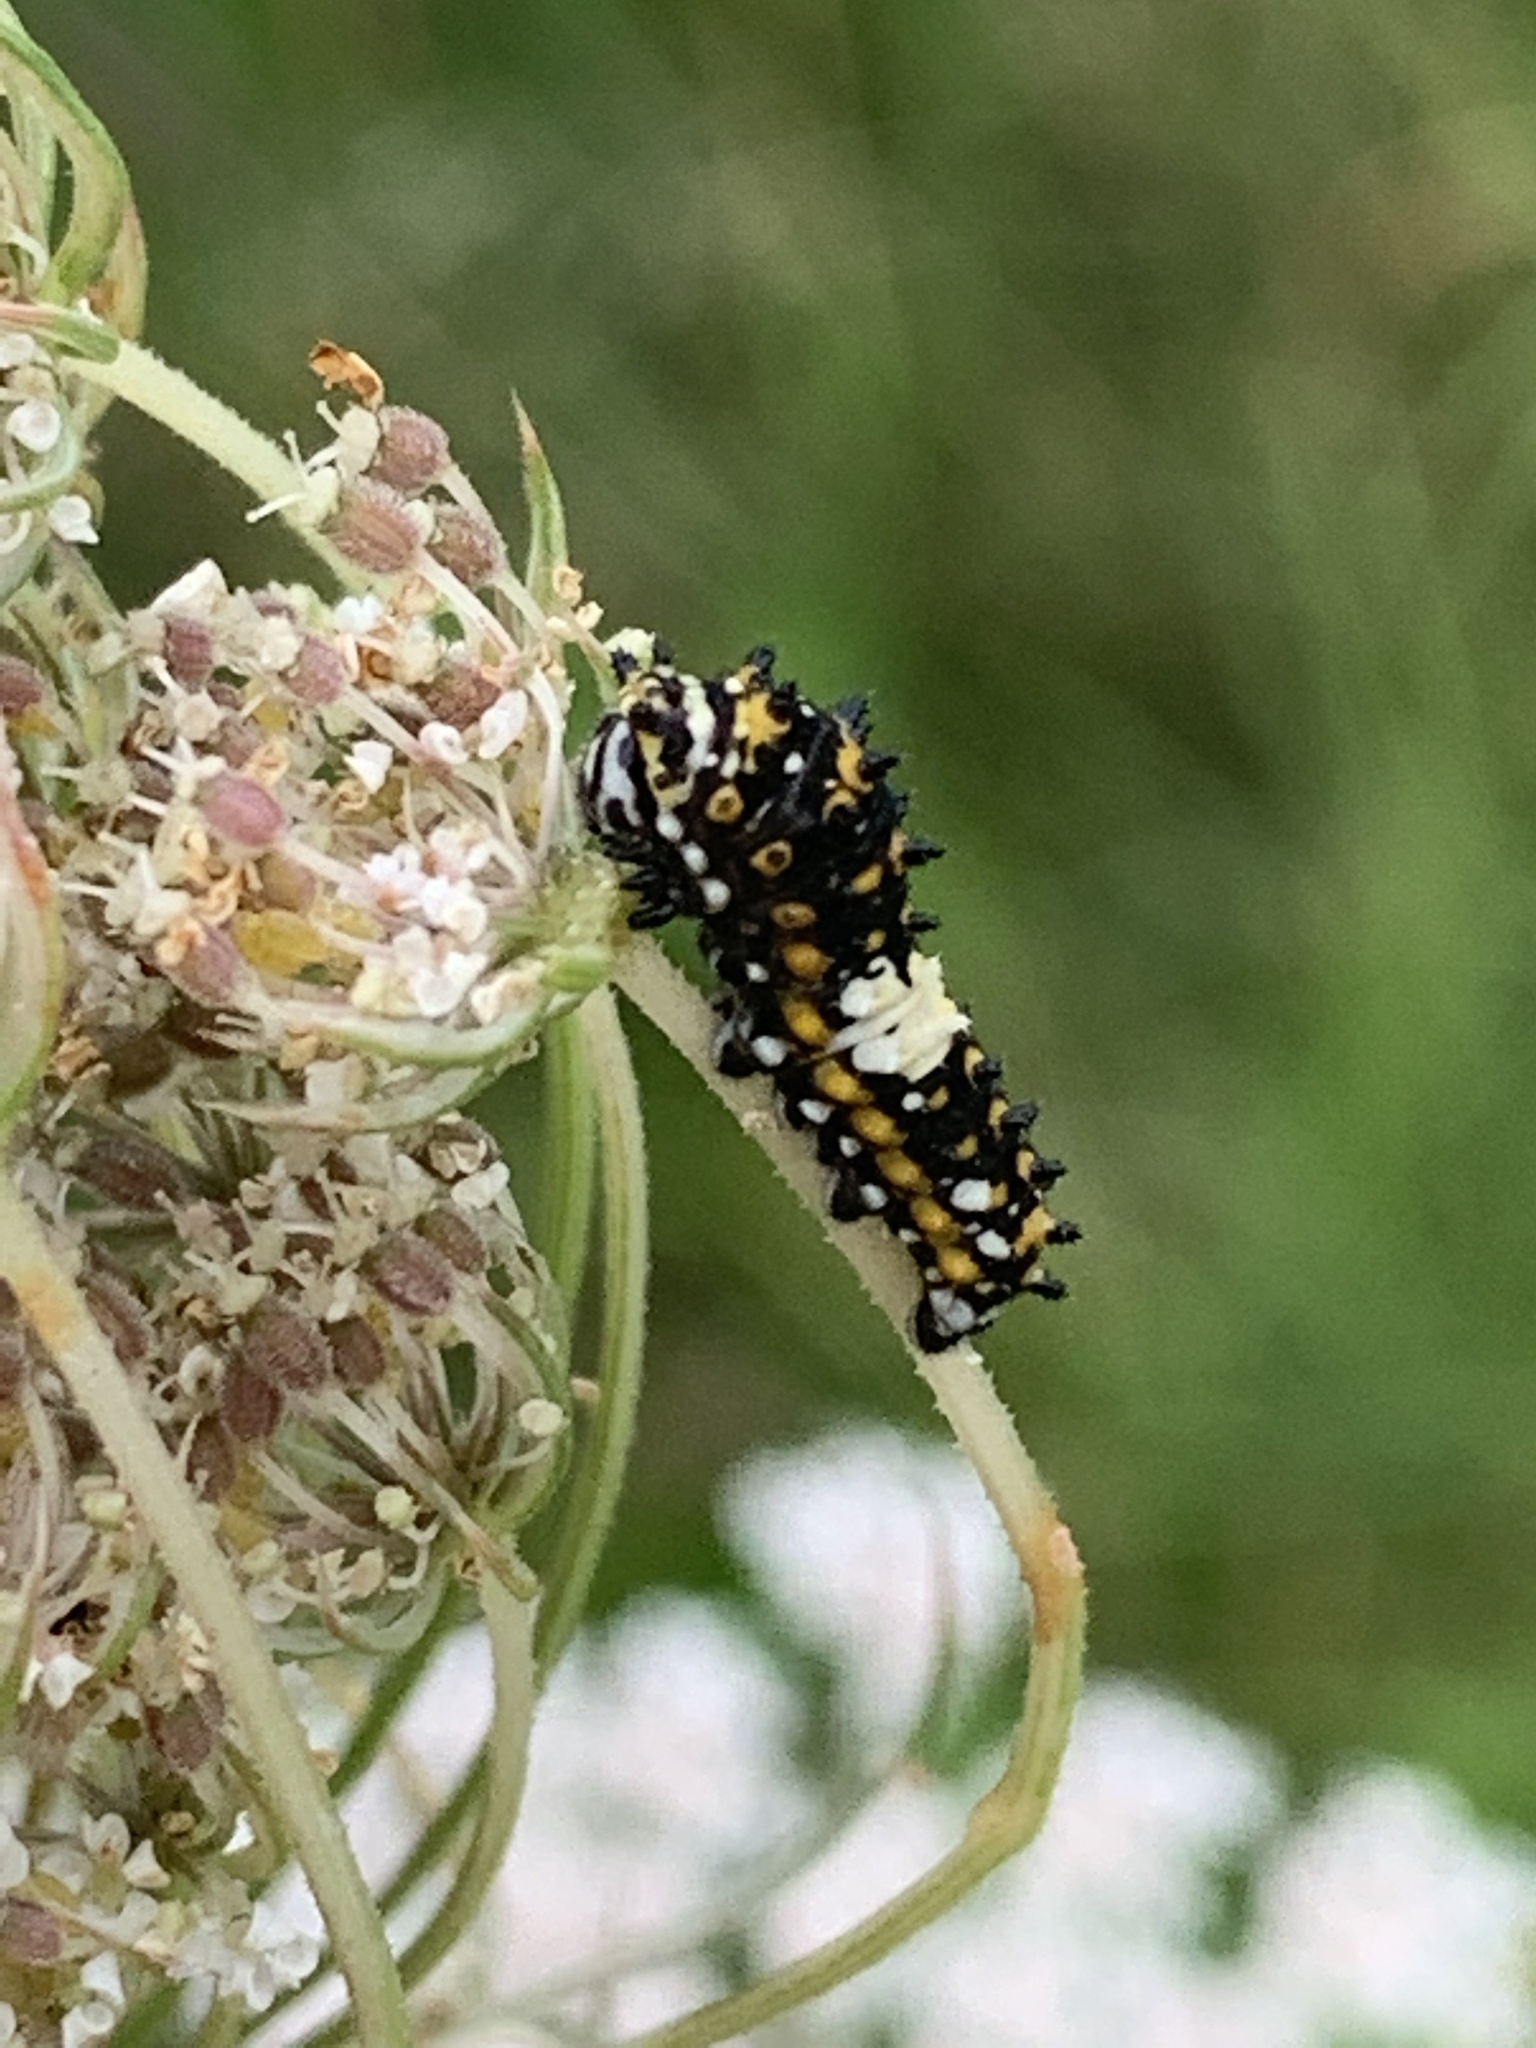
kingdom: Animalia
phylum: Arthropoda
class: Insecta
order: Lepidoptera
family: Papilionidae
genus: Papilio
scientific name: Papilio polyxenes
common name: Black swallowtail
